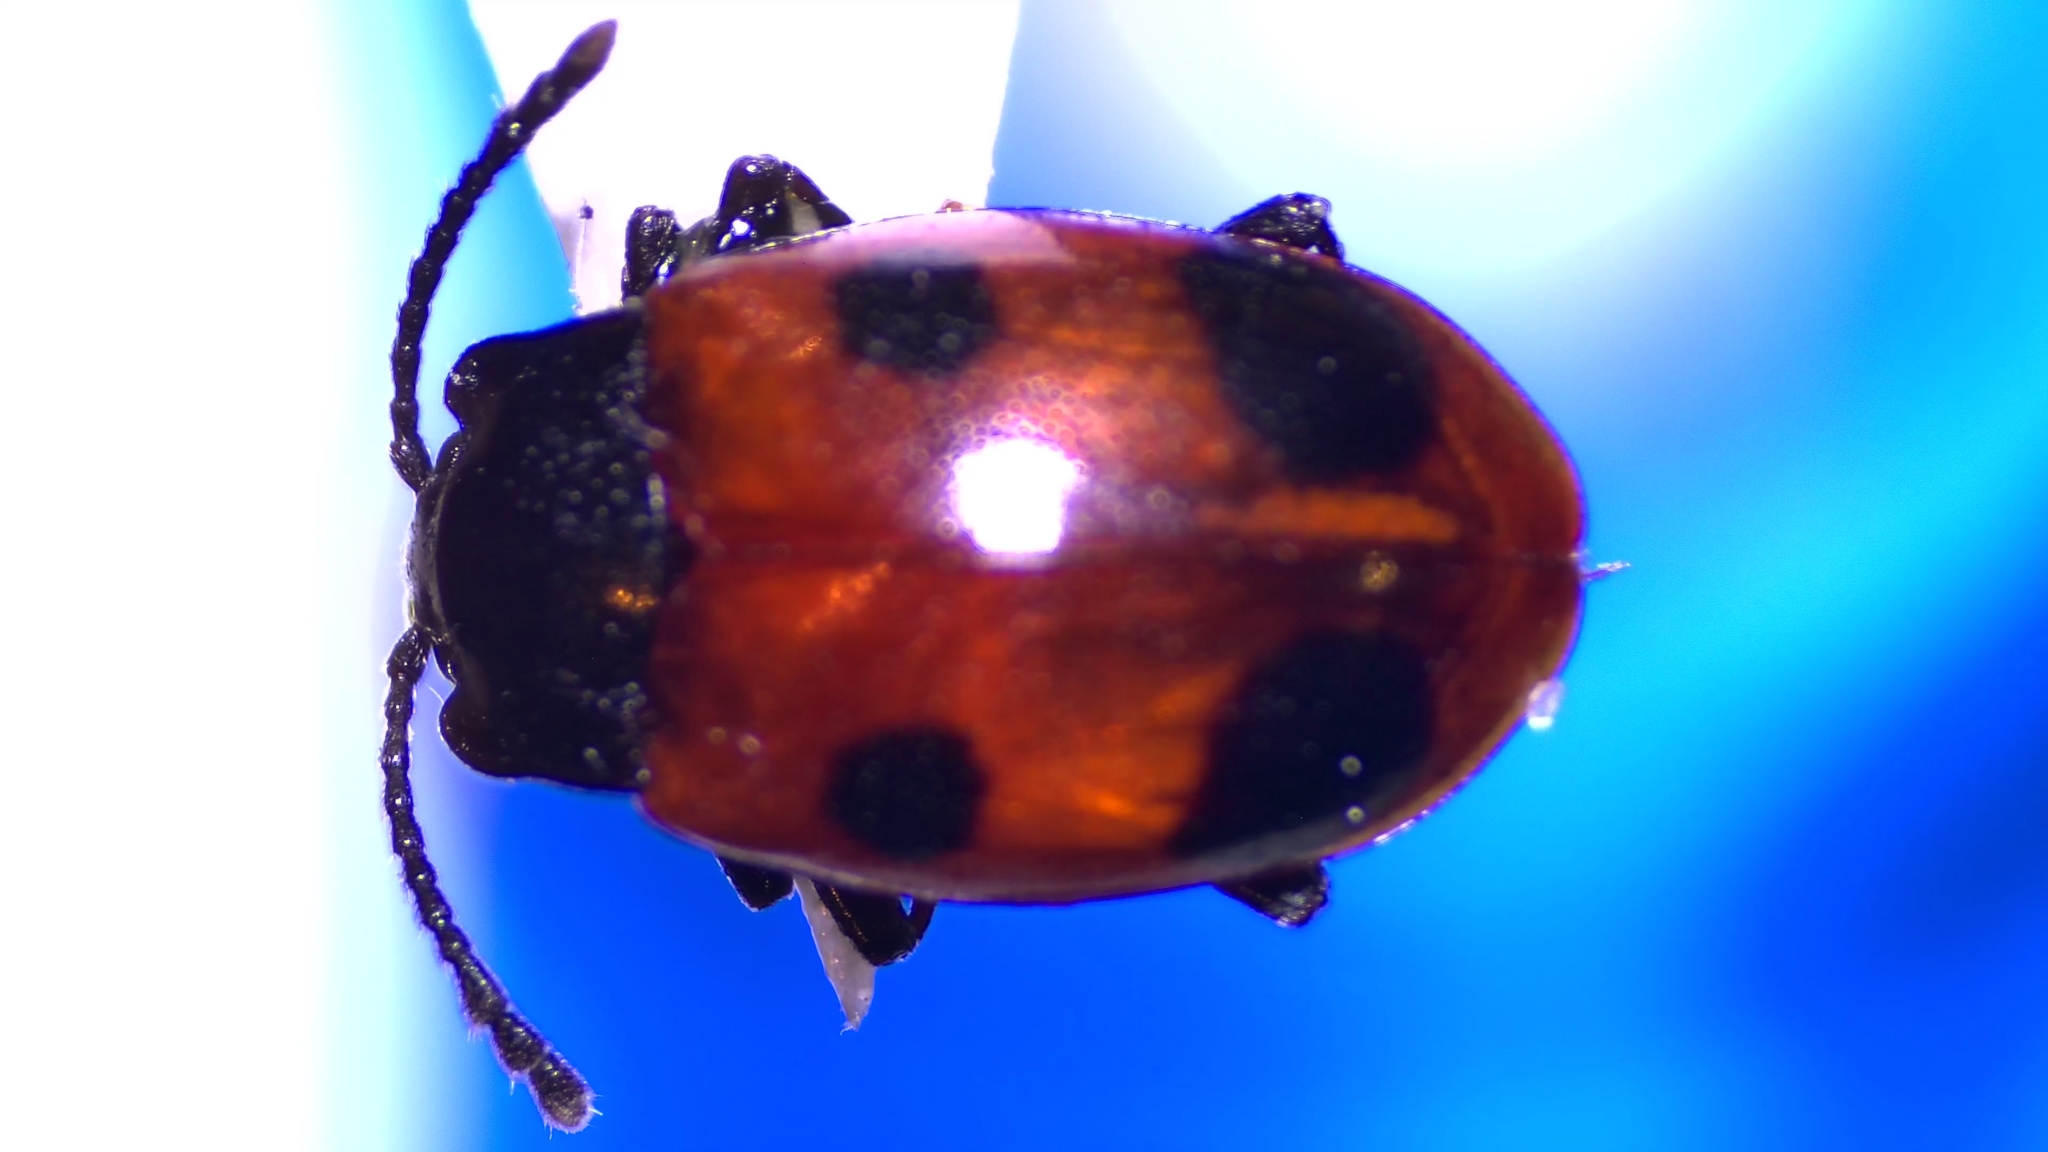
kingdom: Animalia
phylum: Arthropoda
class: Insecta
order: Coleoptera
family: Endomychidae
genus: Endomychus
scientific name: Endomychus biguttatus
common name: Handsome fungus beetle
